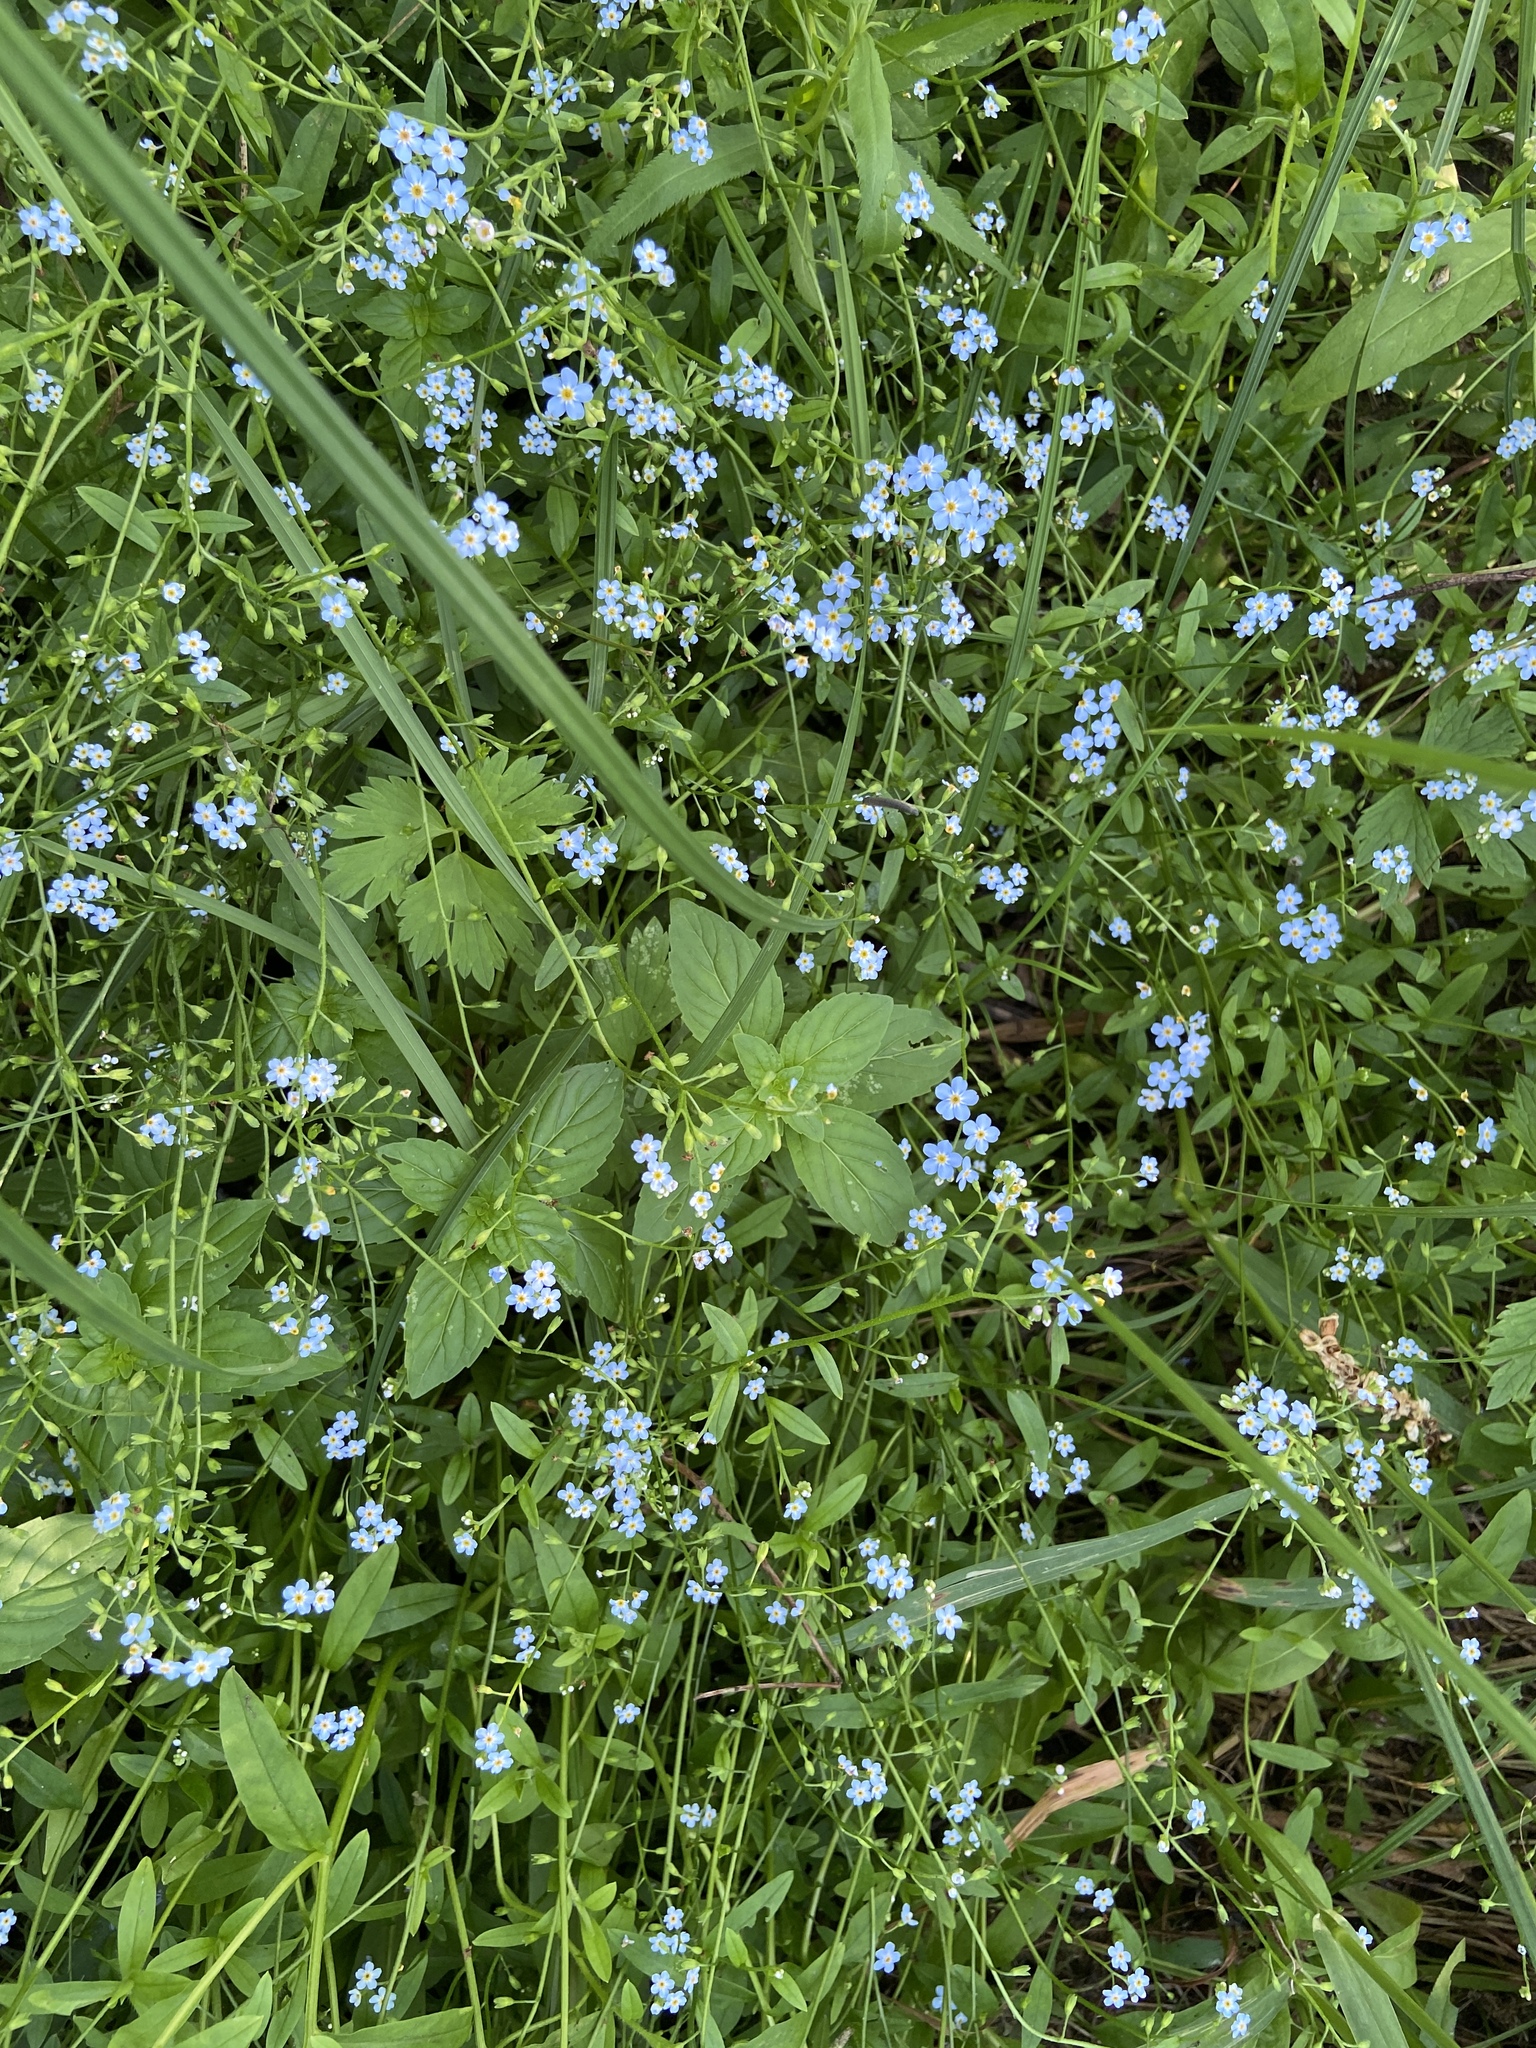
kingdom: Plantae
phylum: Tracheophyta
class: Magnoliopsida
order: Boraginales
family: Boraginaceae
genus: Myosotis
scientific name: Myosotis scorpioides
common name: Water forget-me-not
